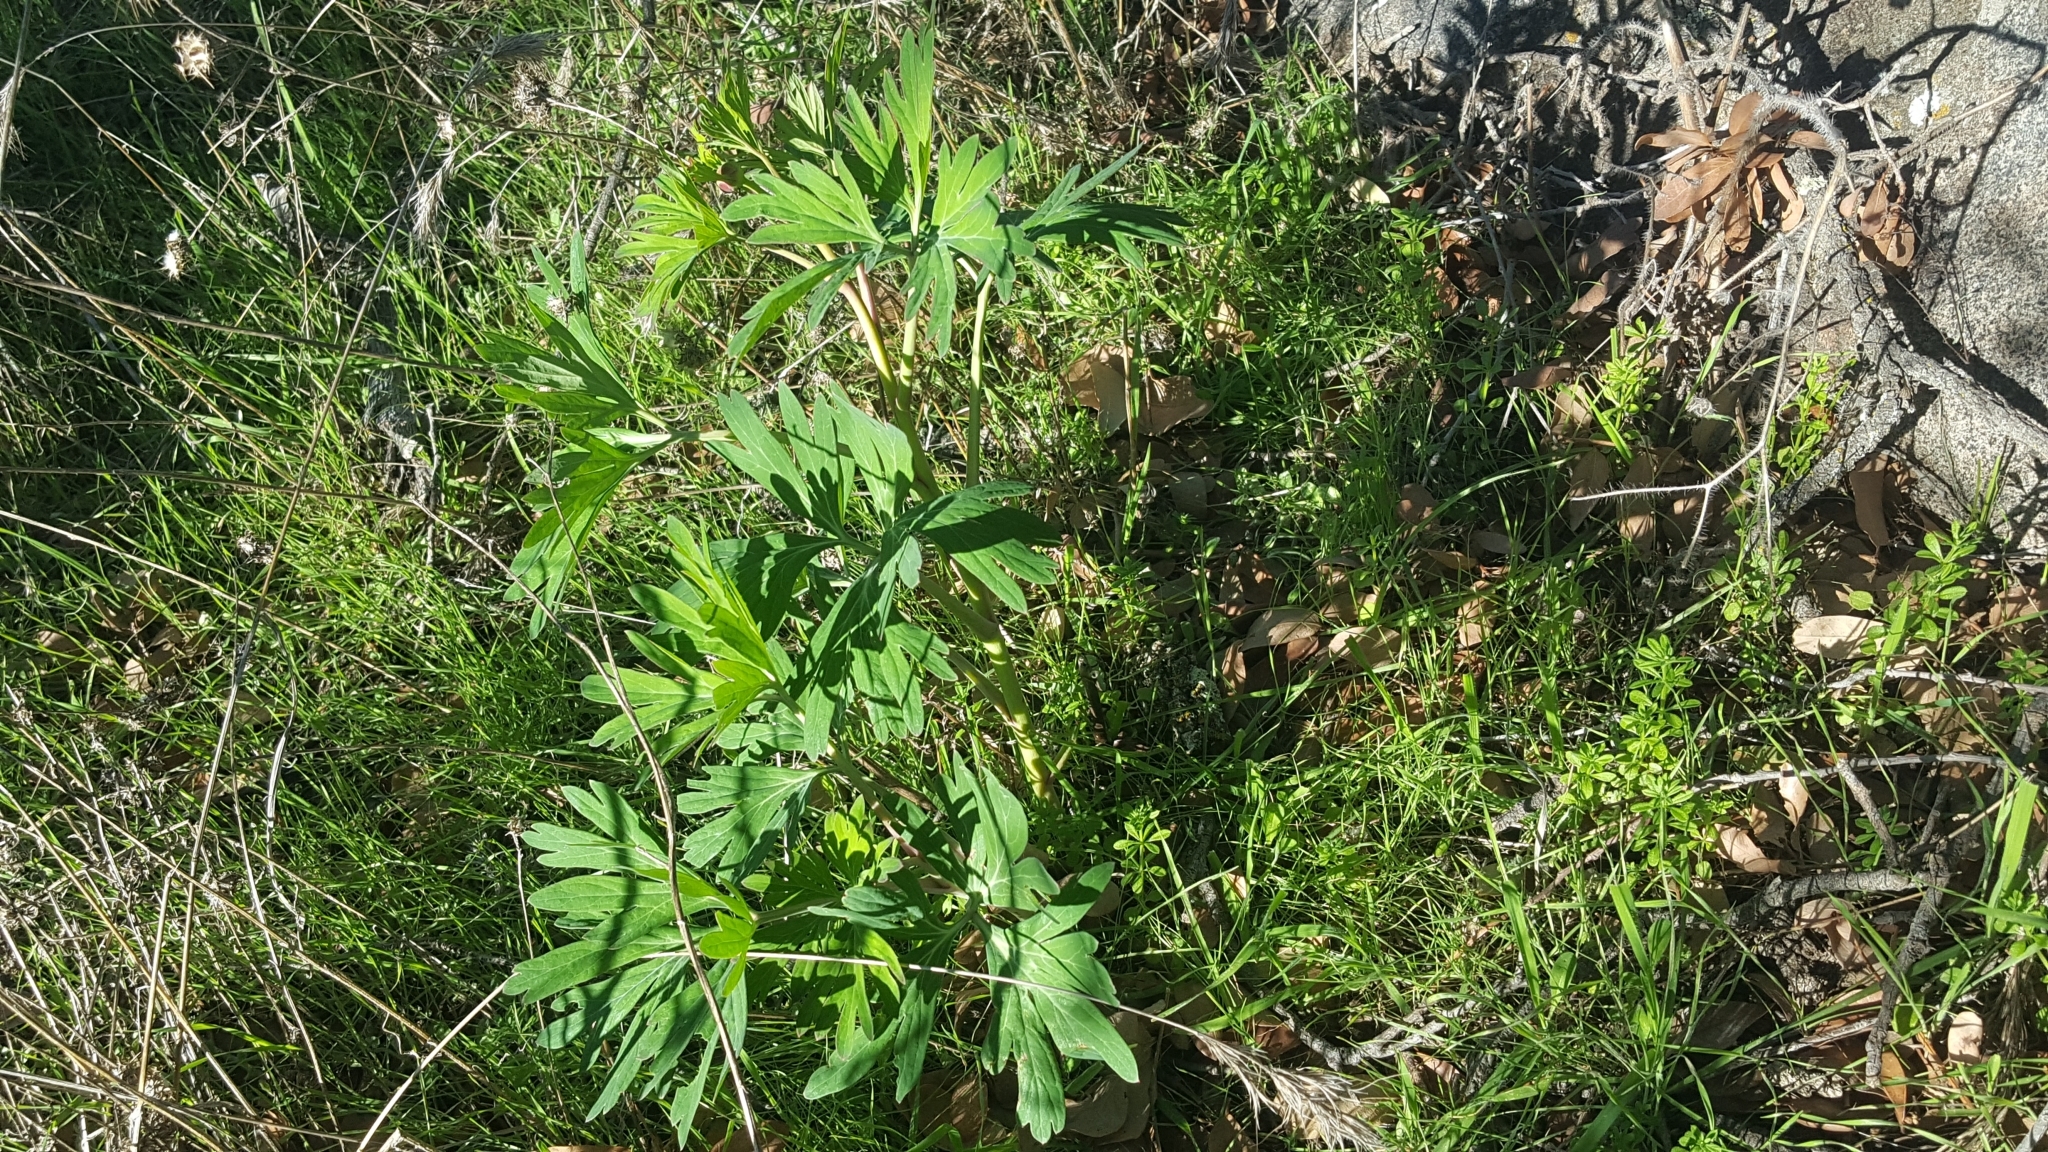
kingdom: Plantae
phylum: Tracheophyta
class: Magnoliopsida
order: Saxifragales
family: Paeoniaceae
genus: Paeonia
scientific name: Paeonia californica
